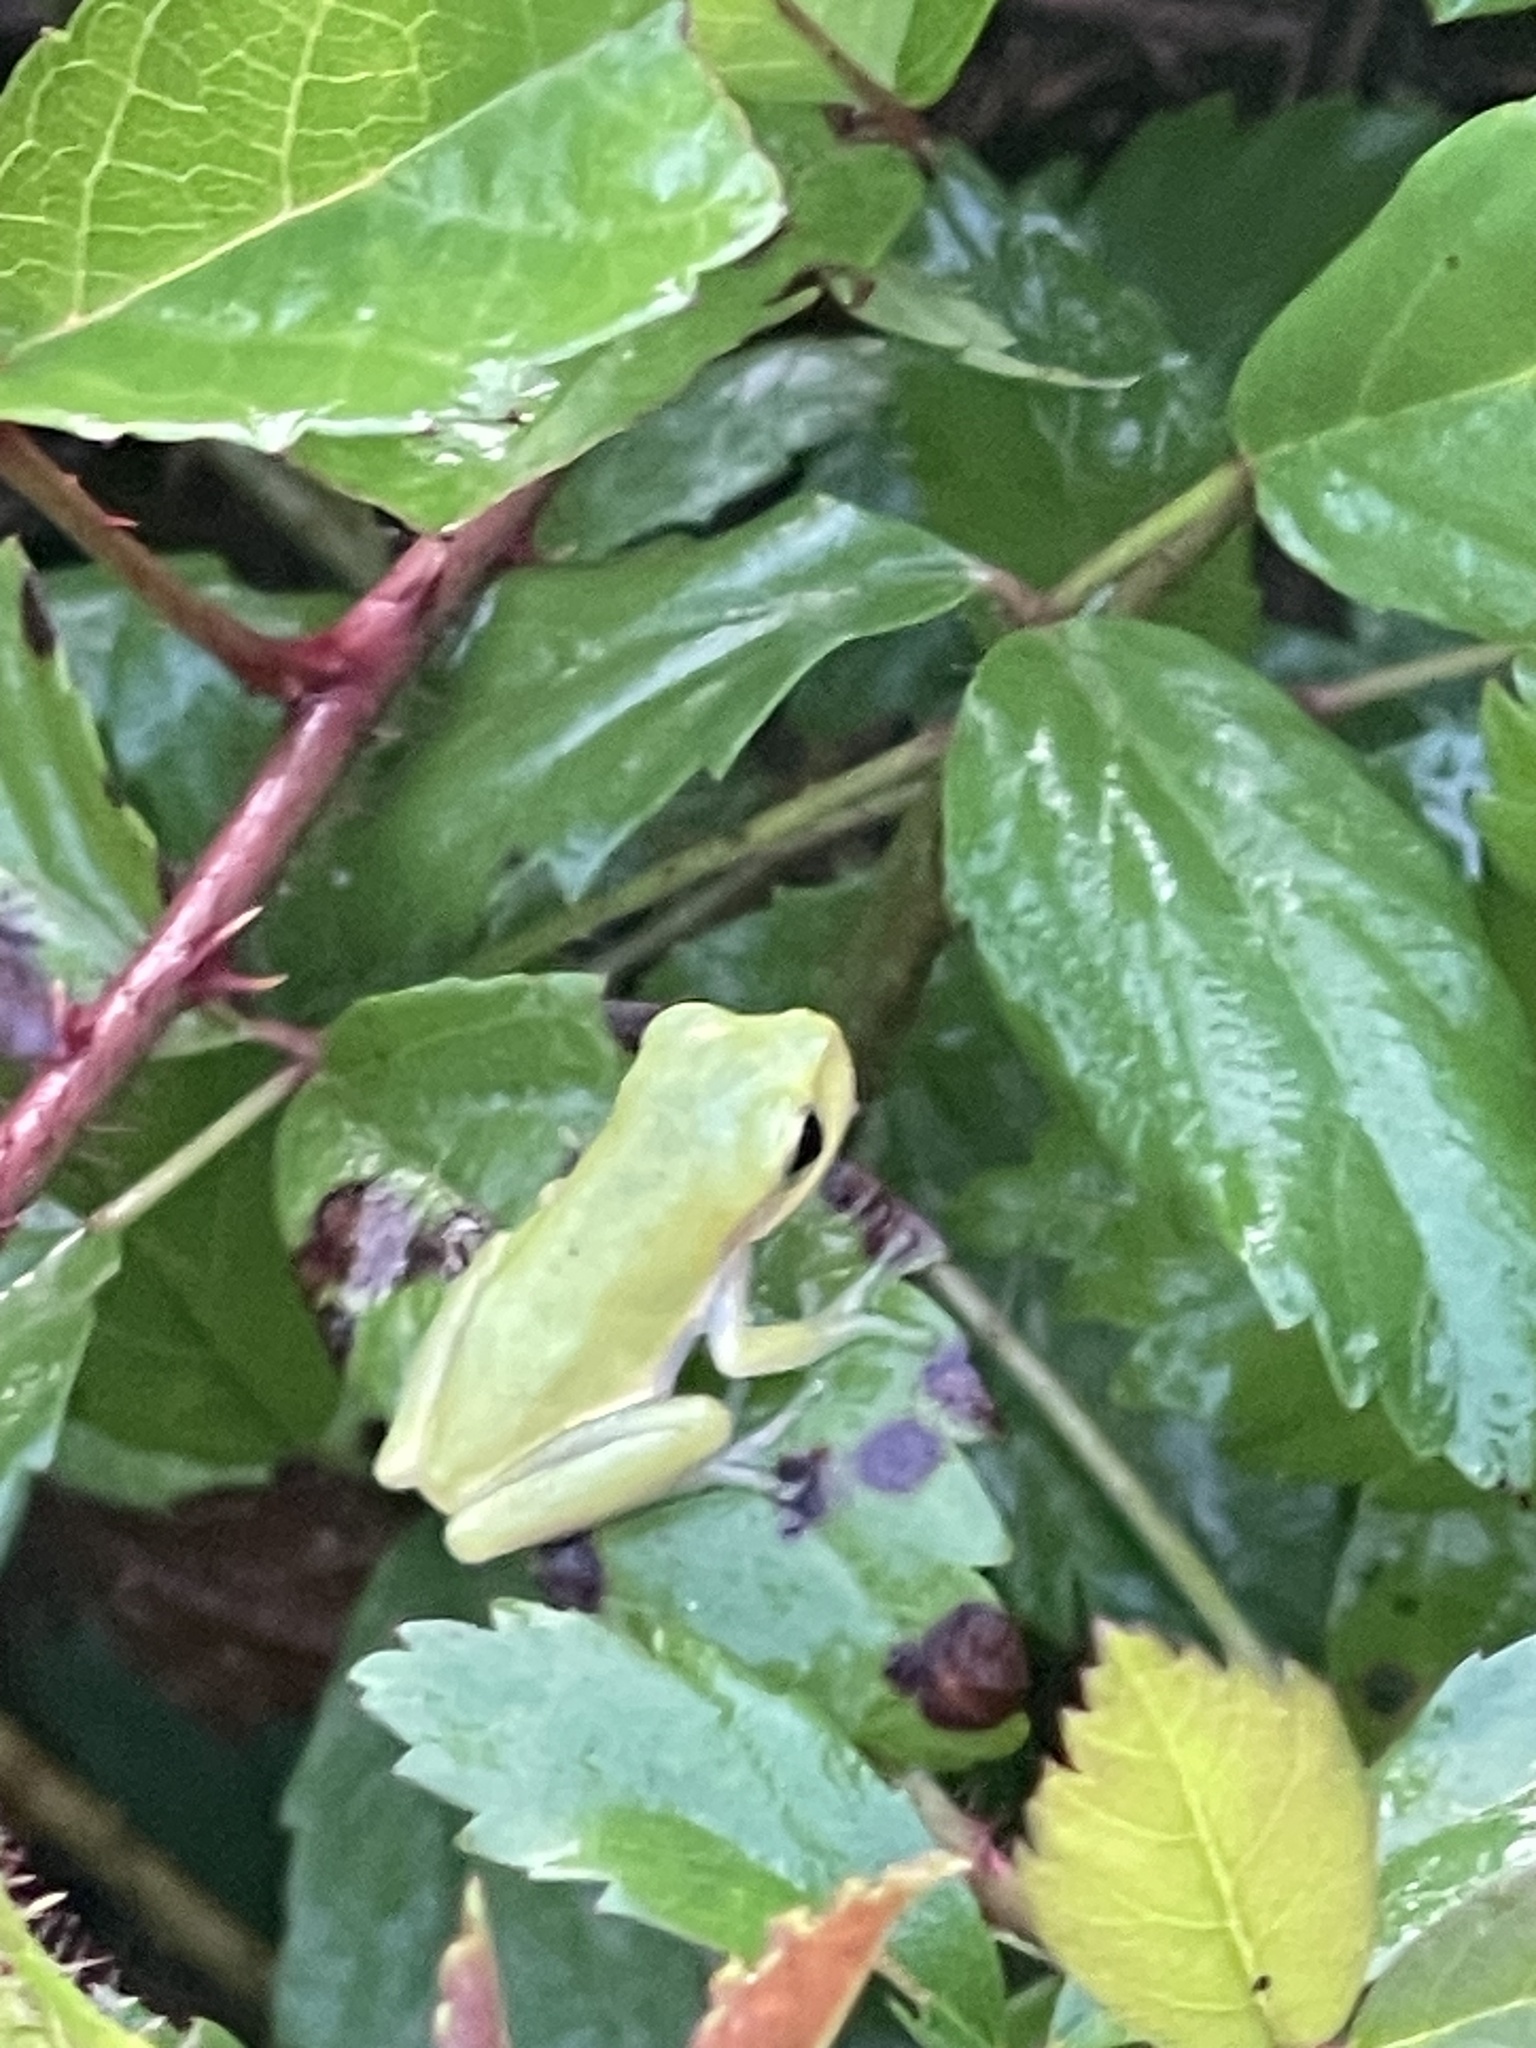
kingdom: Animalia
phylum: Chordata
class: Amphibia
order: Anura
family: Hylidae
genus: Dryophytes
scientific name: Dryophytes squirellus
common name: Squirrel treefrog
